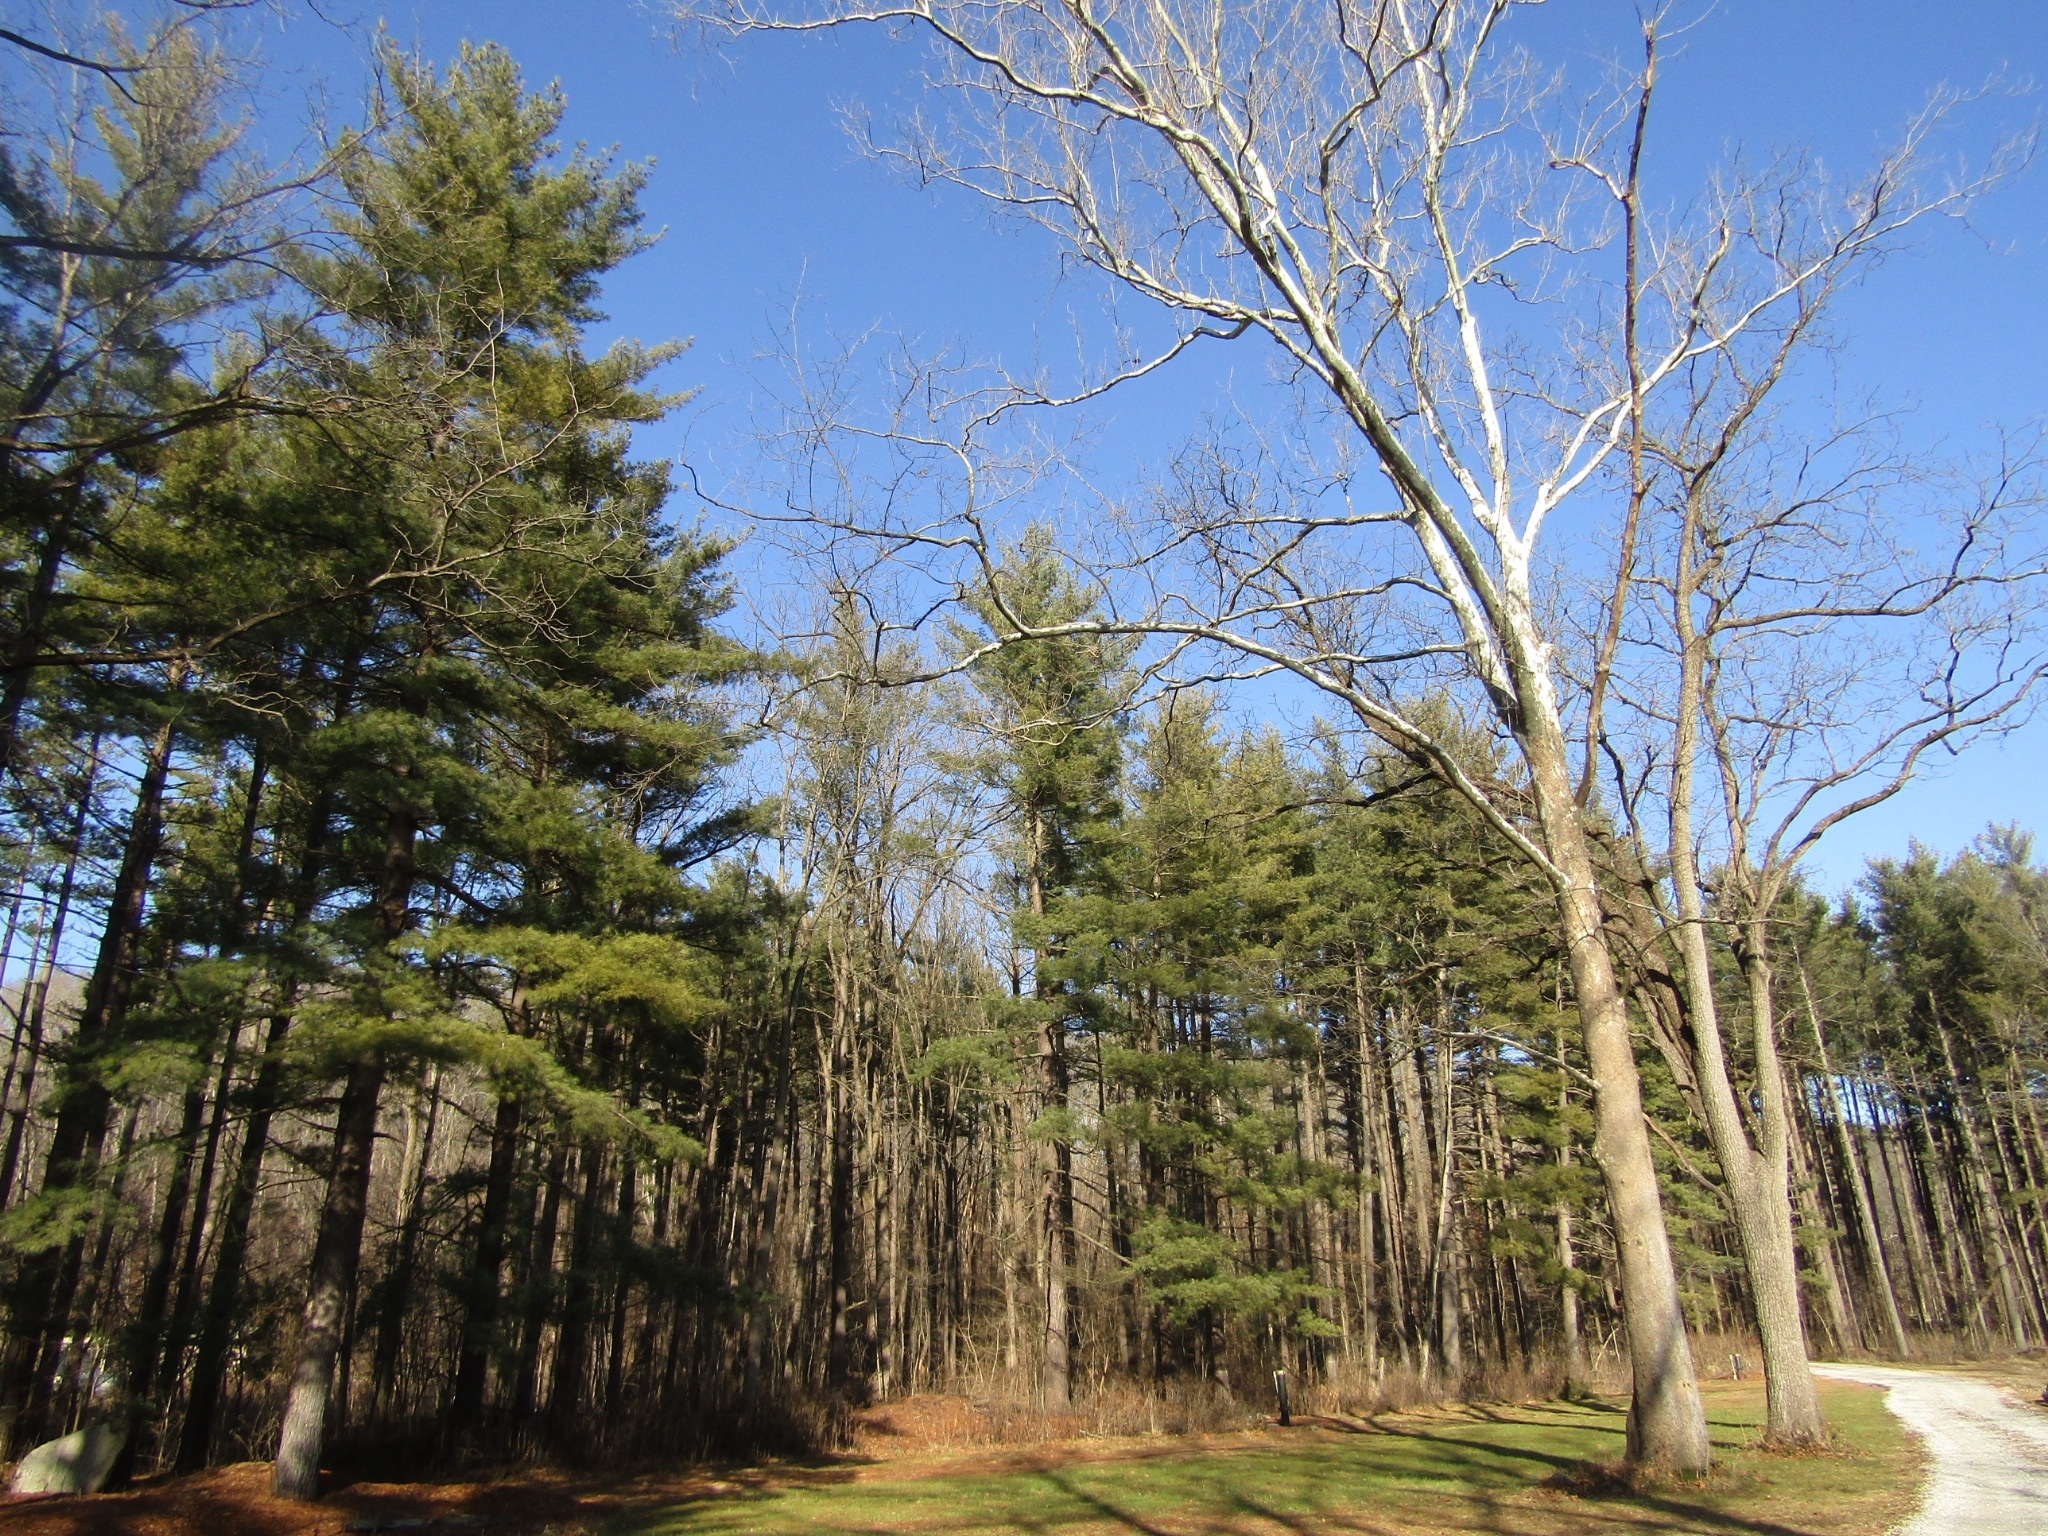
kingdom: Plantae
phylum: Tracheophyta
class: Pinopsida
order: Pinales
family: Pinaceae
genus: Pinus
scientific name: Pinus strobus
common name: Weymouth pine
